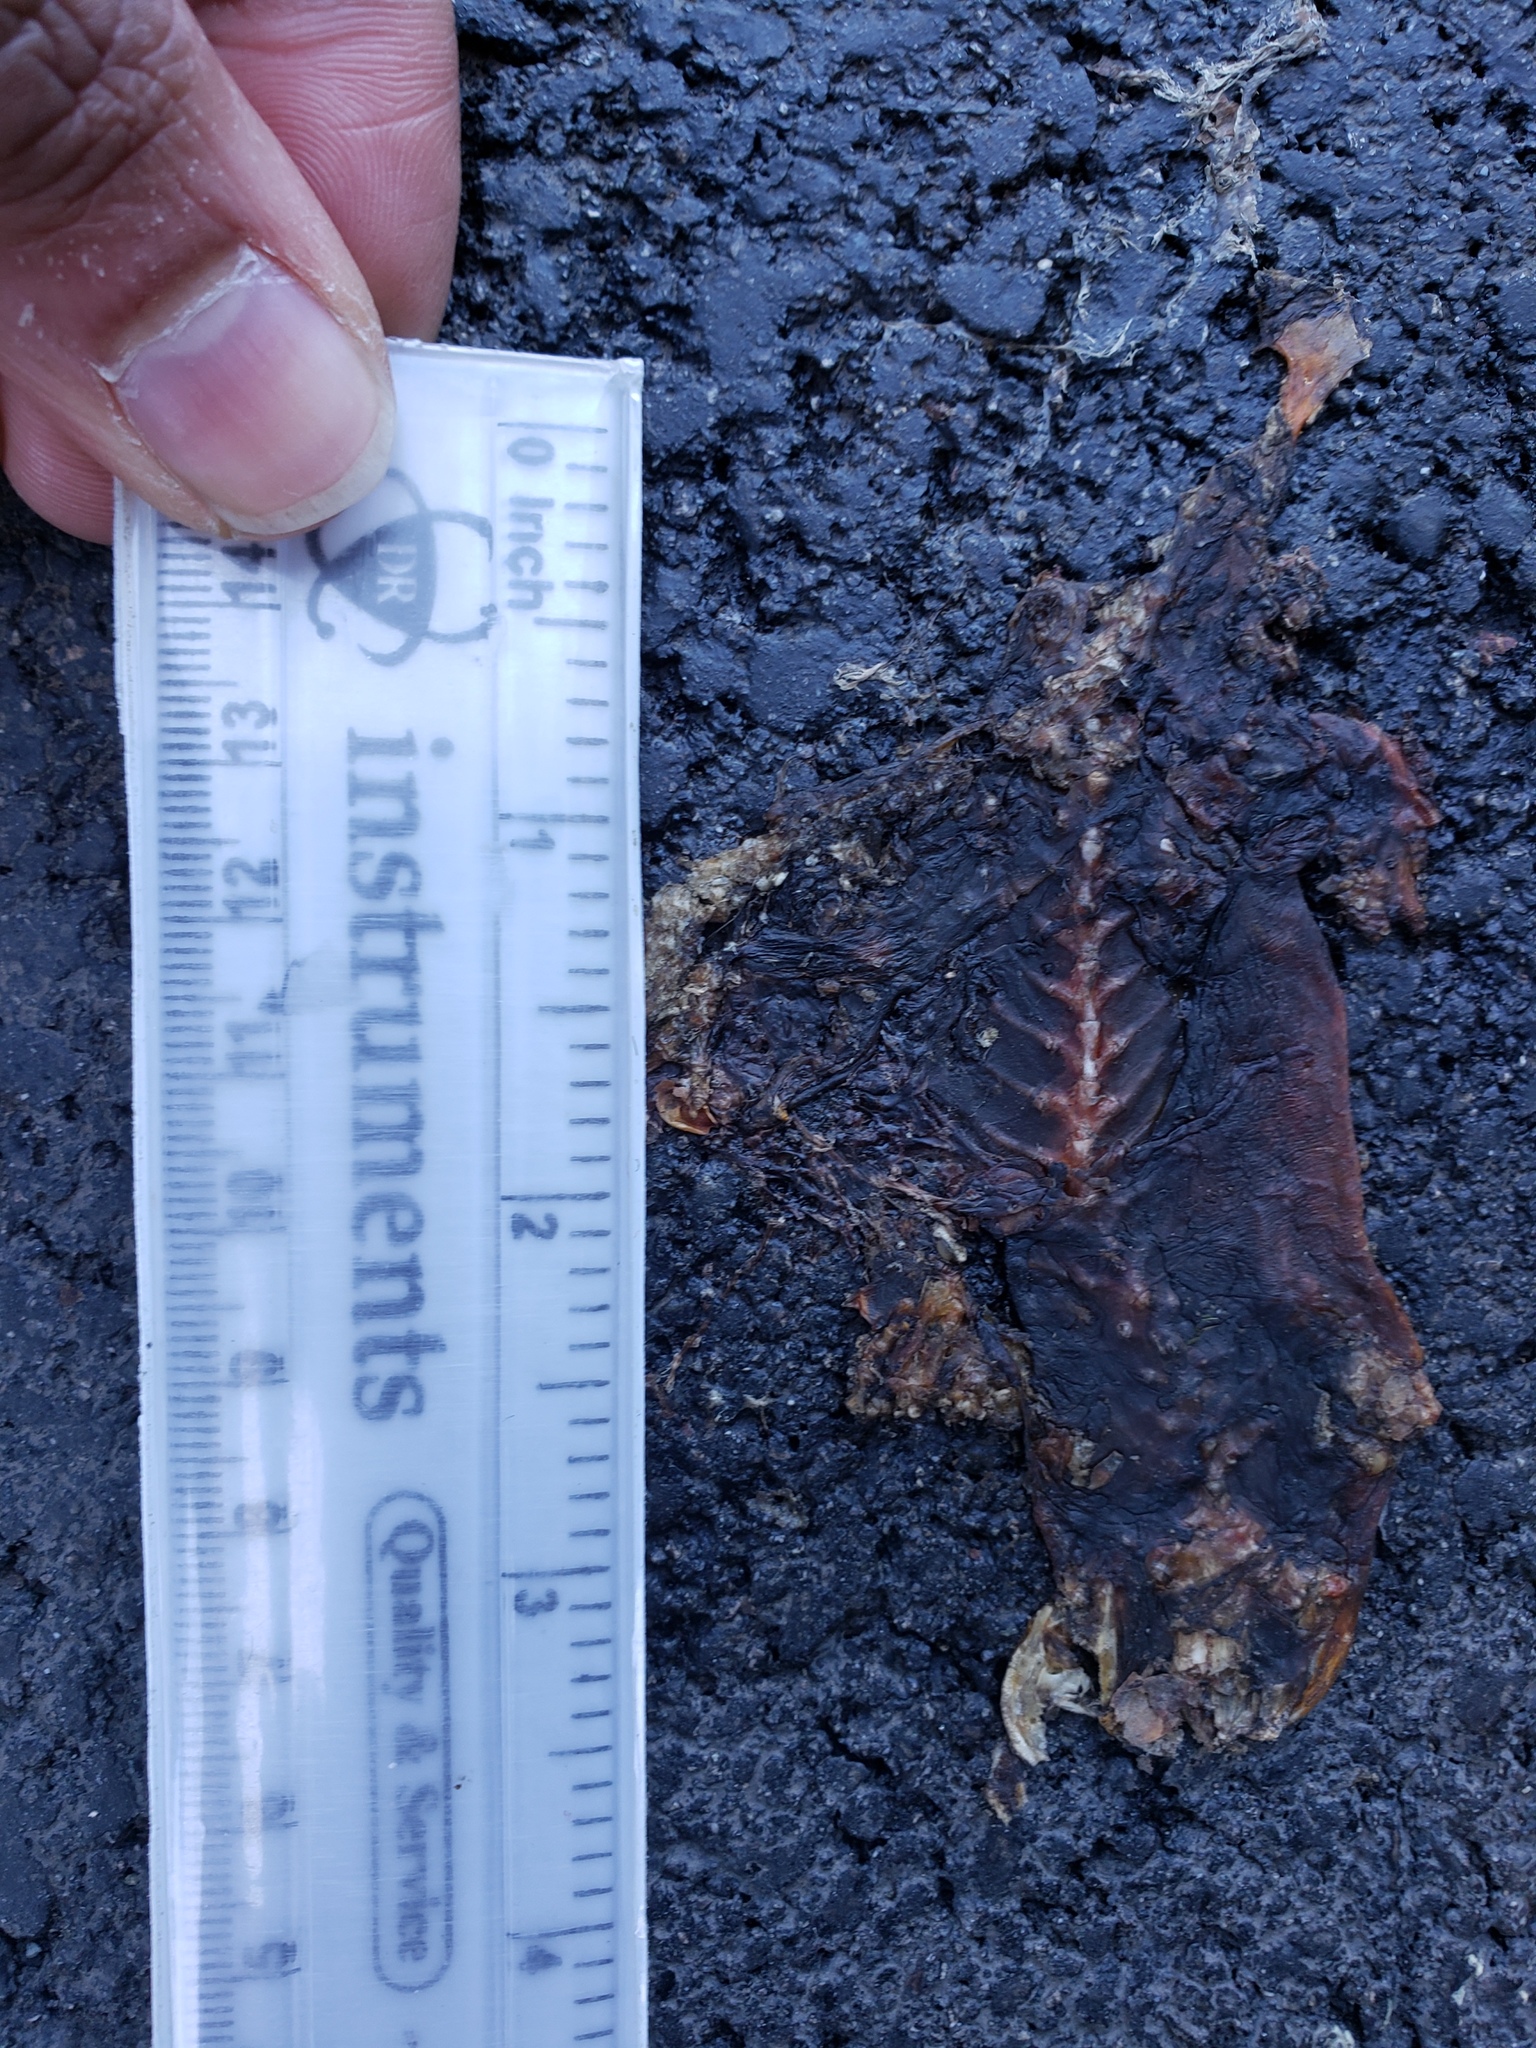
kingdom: Animalia
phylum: Chordata
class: Amphibia
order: Caudata
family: Salamandridae
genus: Taricha
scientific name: Taricha
